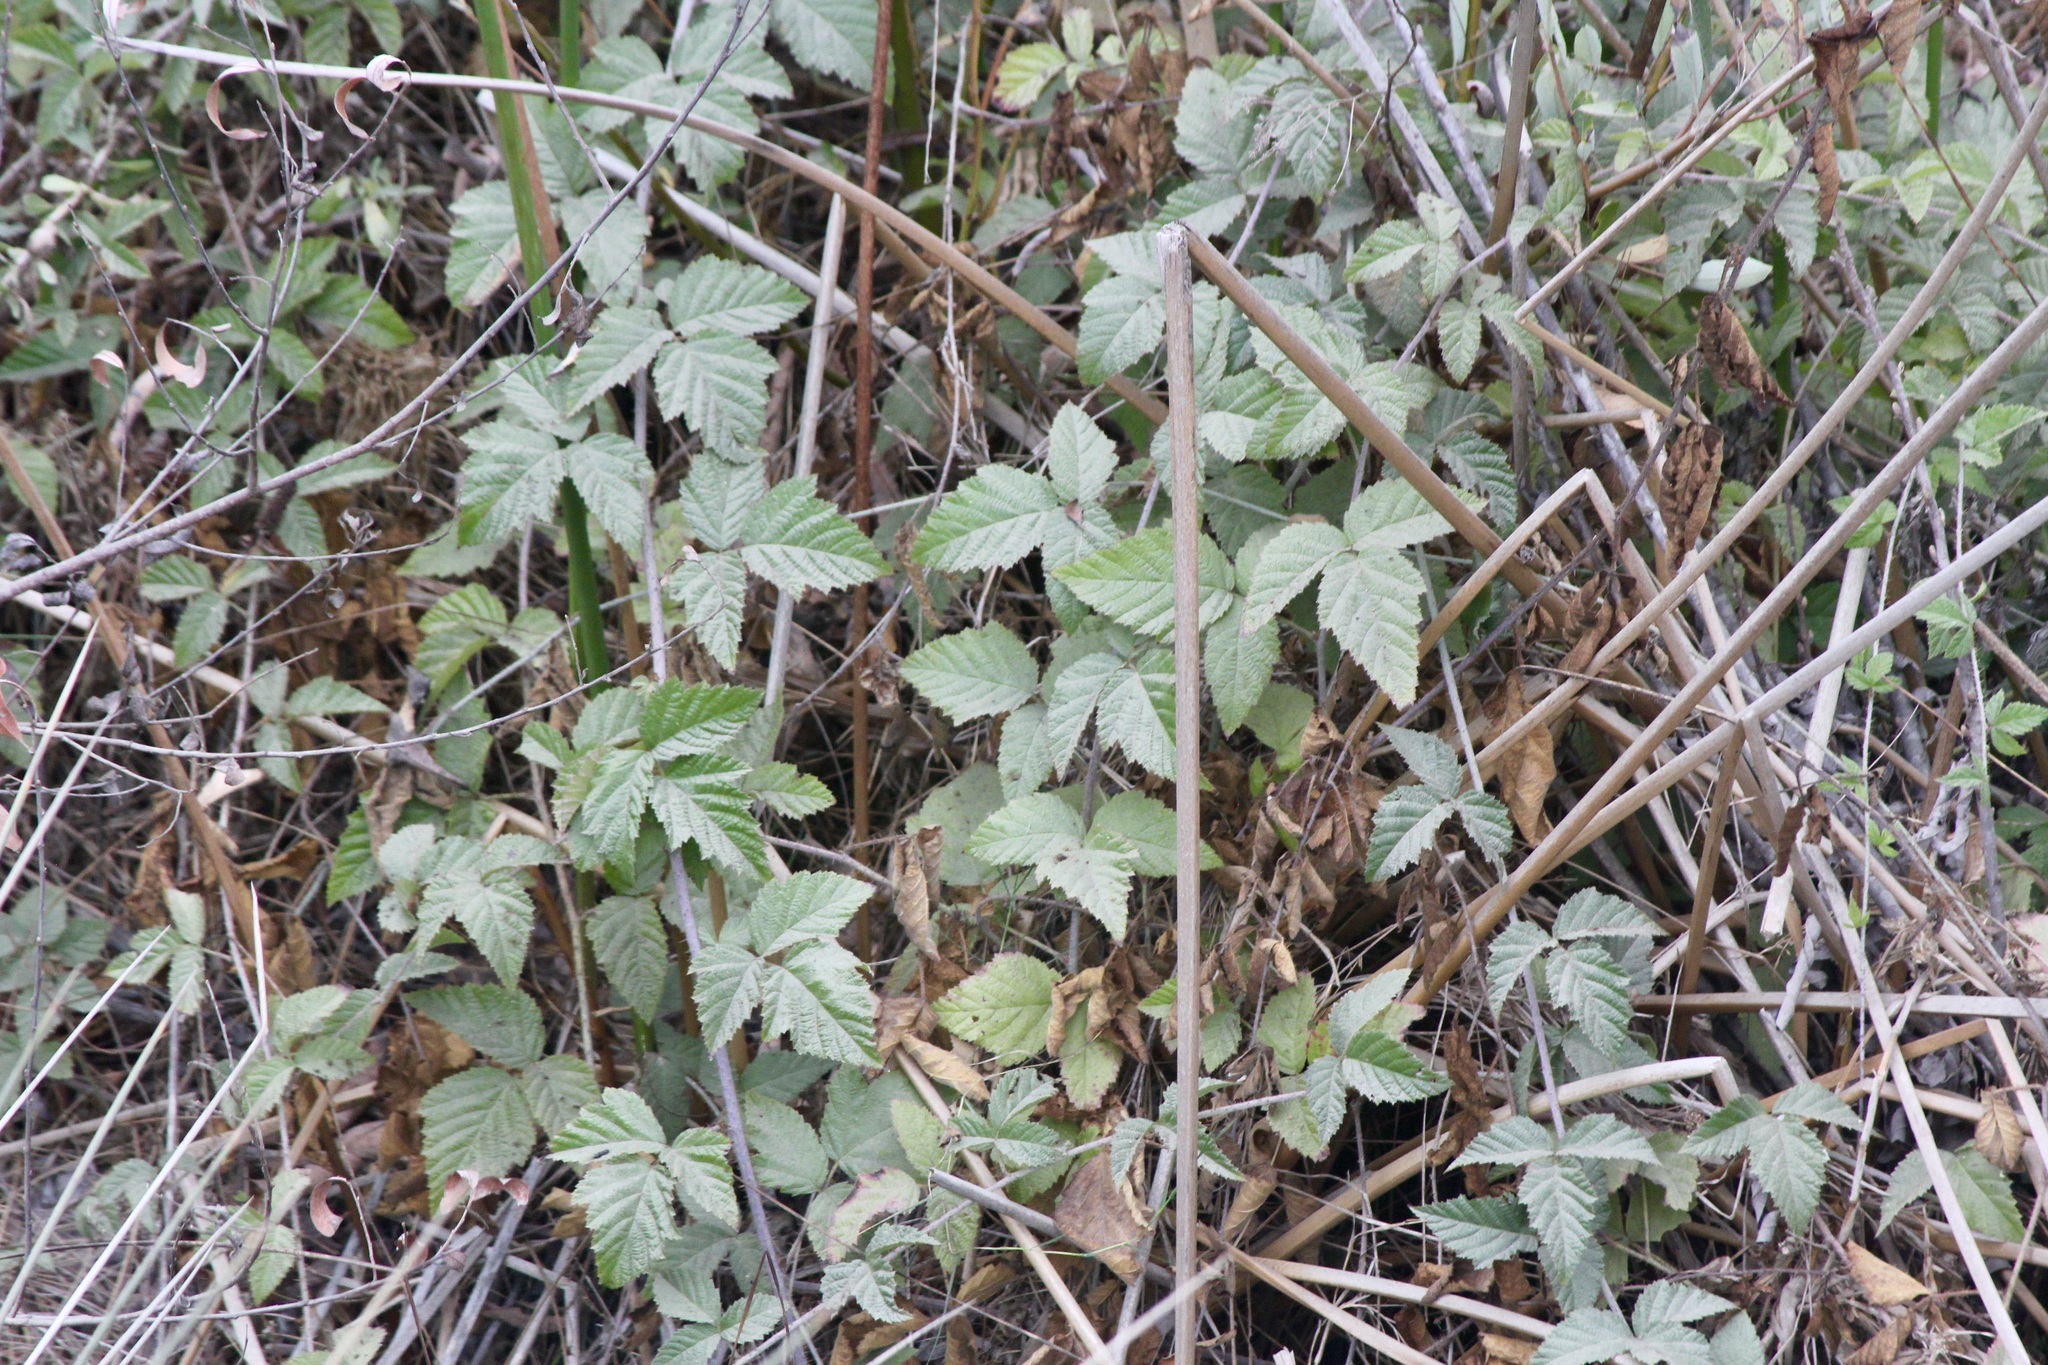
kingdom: Plantae
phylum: Tracheophyta
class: Magnoliopsida
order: Rosales
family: Rosaceae
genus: Rubus
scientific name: Rubus ursinus
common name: Pacific blackberry
